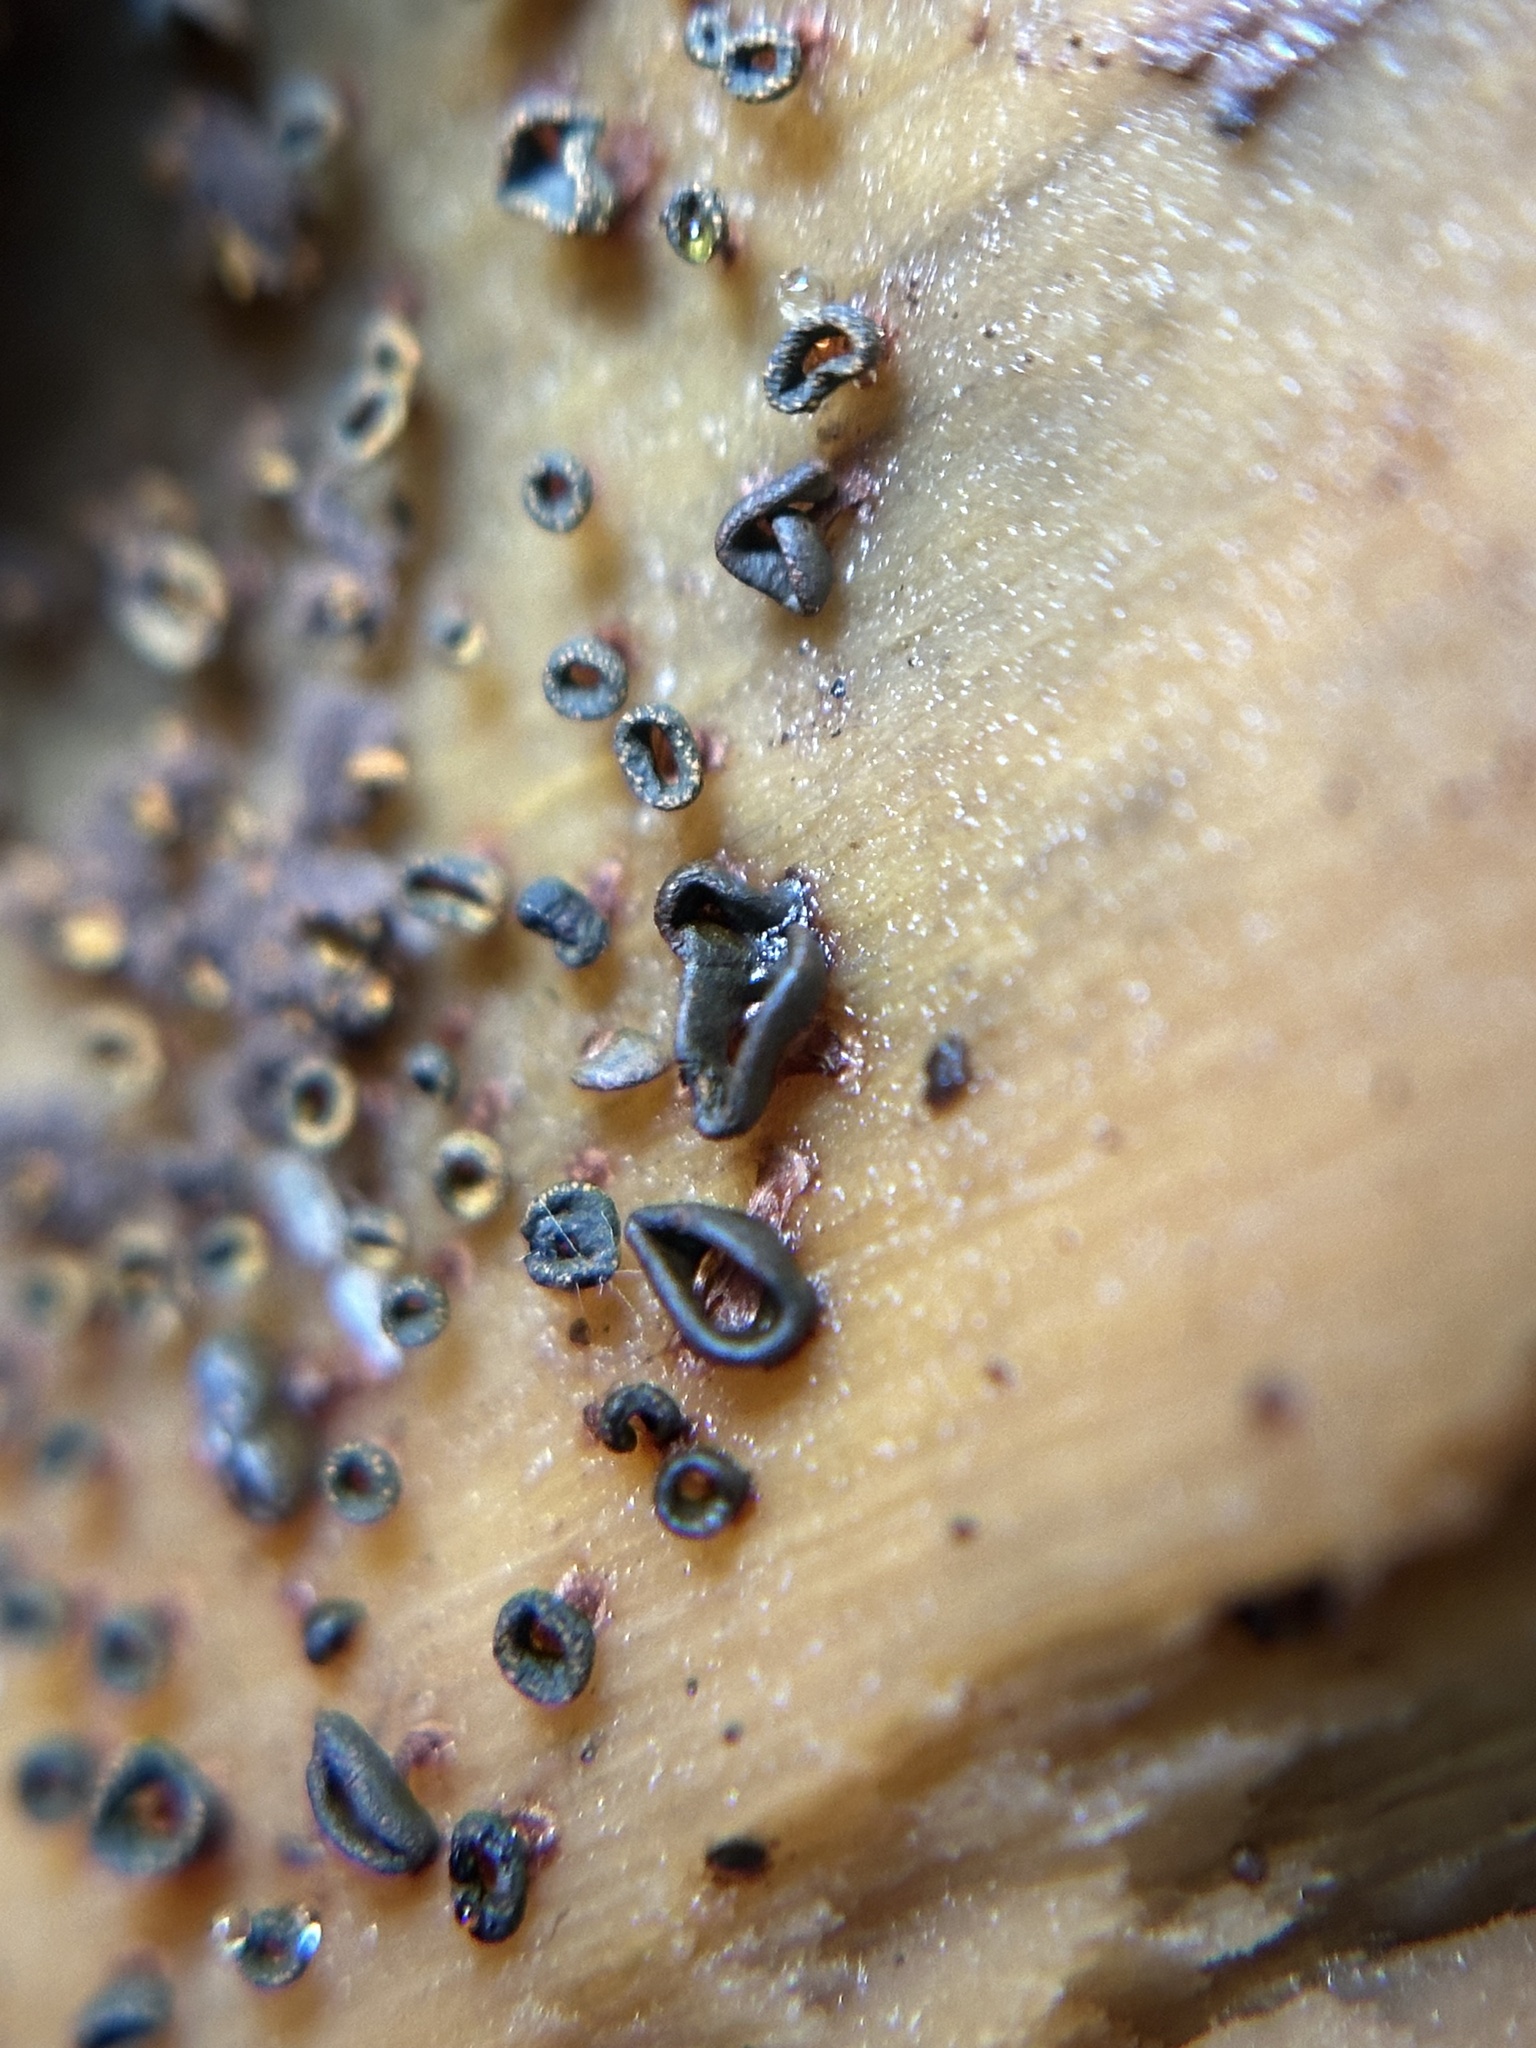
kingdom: Protozoa
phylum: Mycetozoa
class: Myxomycetes
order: Physarales
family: Physaraceae
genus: Physarella
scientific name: Physarella oblonga
